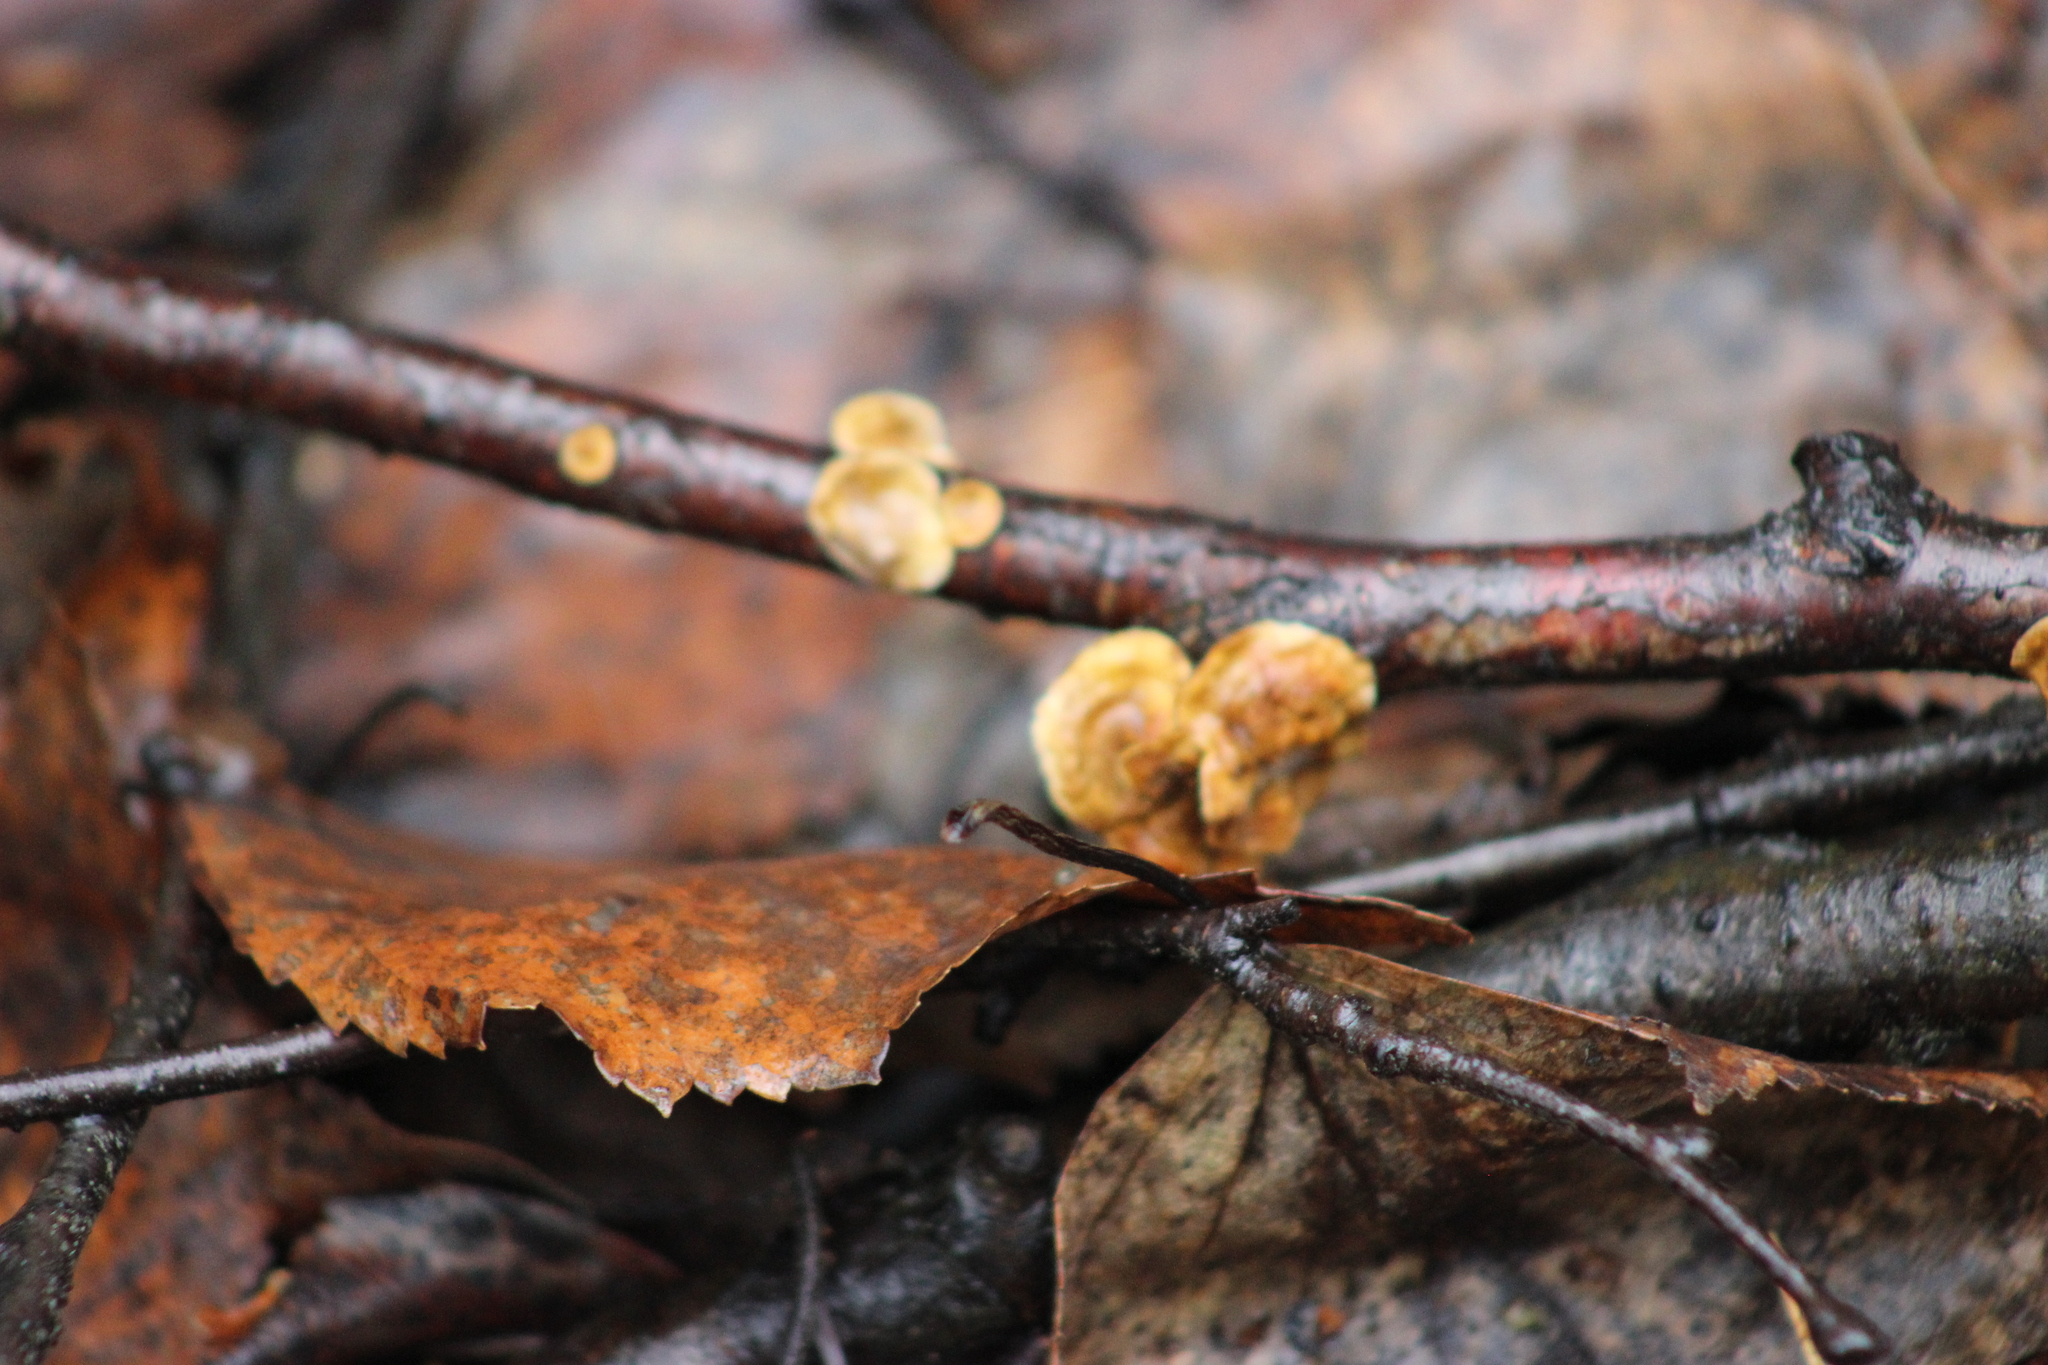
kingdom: Fungi
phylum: Basidiomycota
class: Agaricomycetes
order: Russulales
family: Stereaceae
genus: Stereum
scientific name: Stereum hirsutum
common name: Hairy curtain crust
